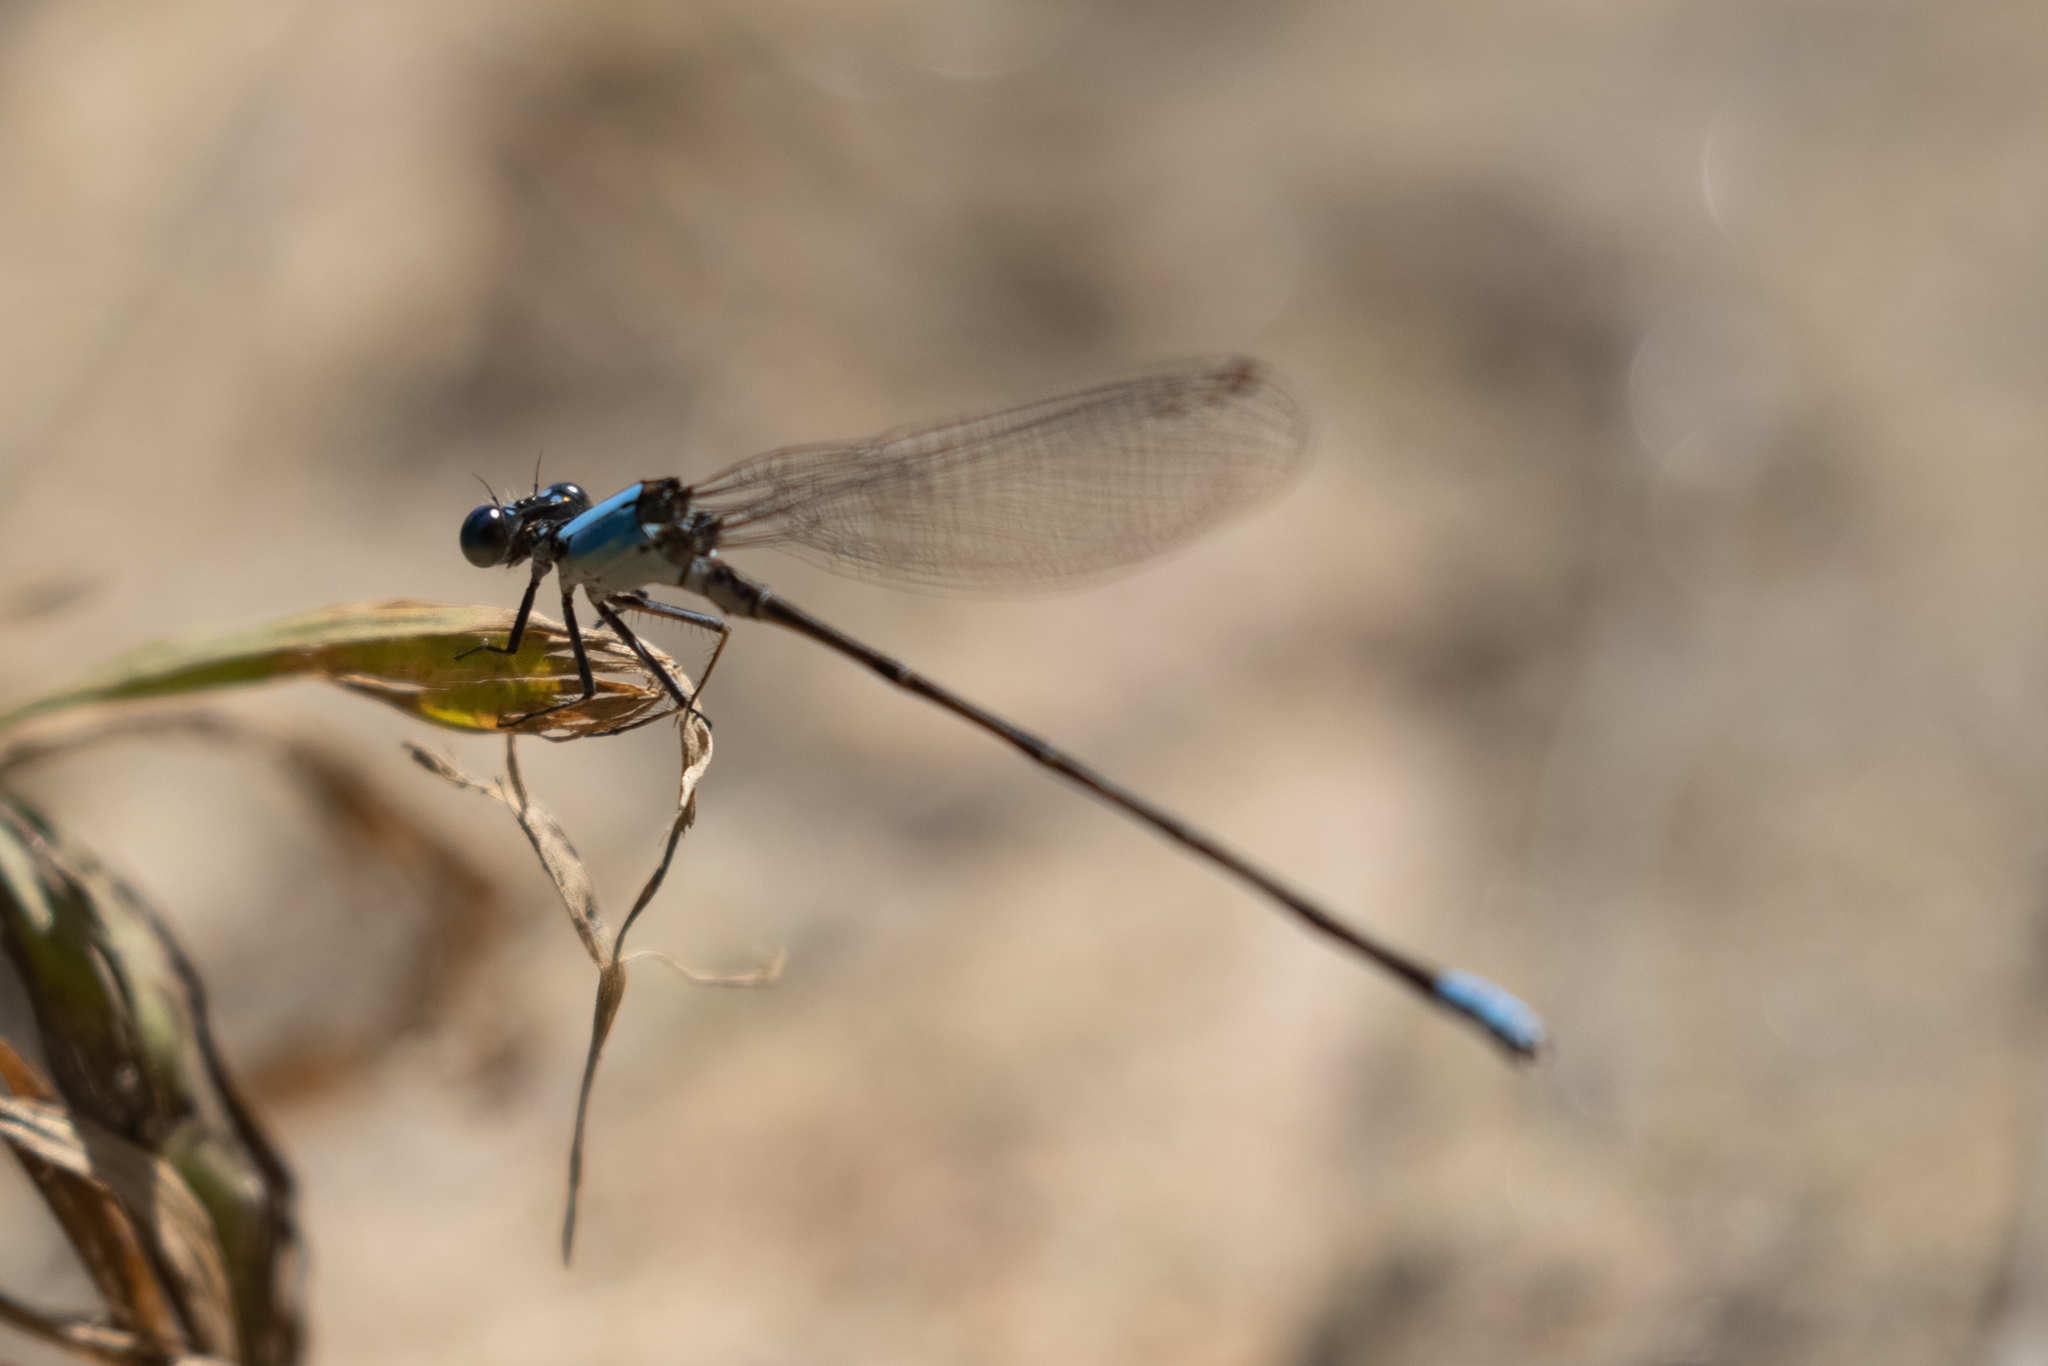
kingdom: Animalia
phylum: Arthropoda
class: Insecta
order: Odonata
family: Coenagrionidae
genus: Argia
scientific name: Argia apicalis
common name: Blue-fronted dancer
